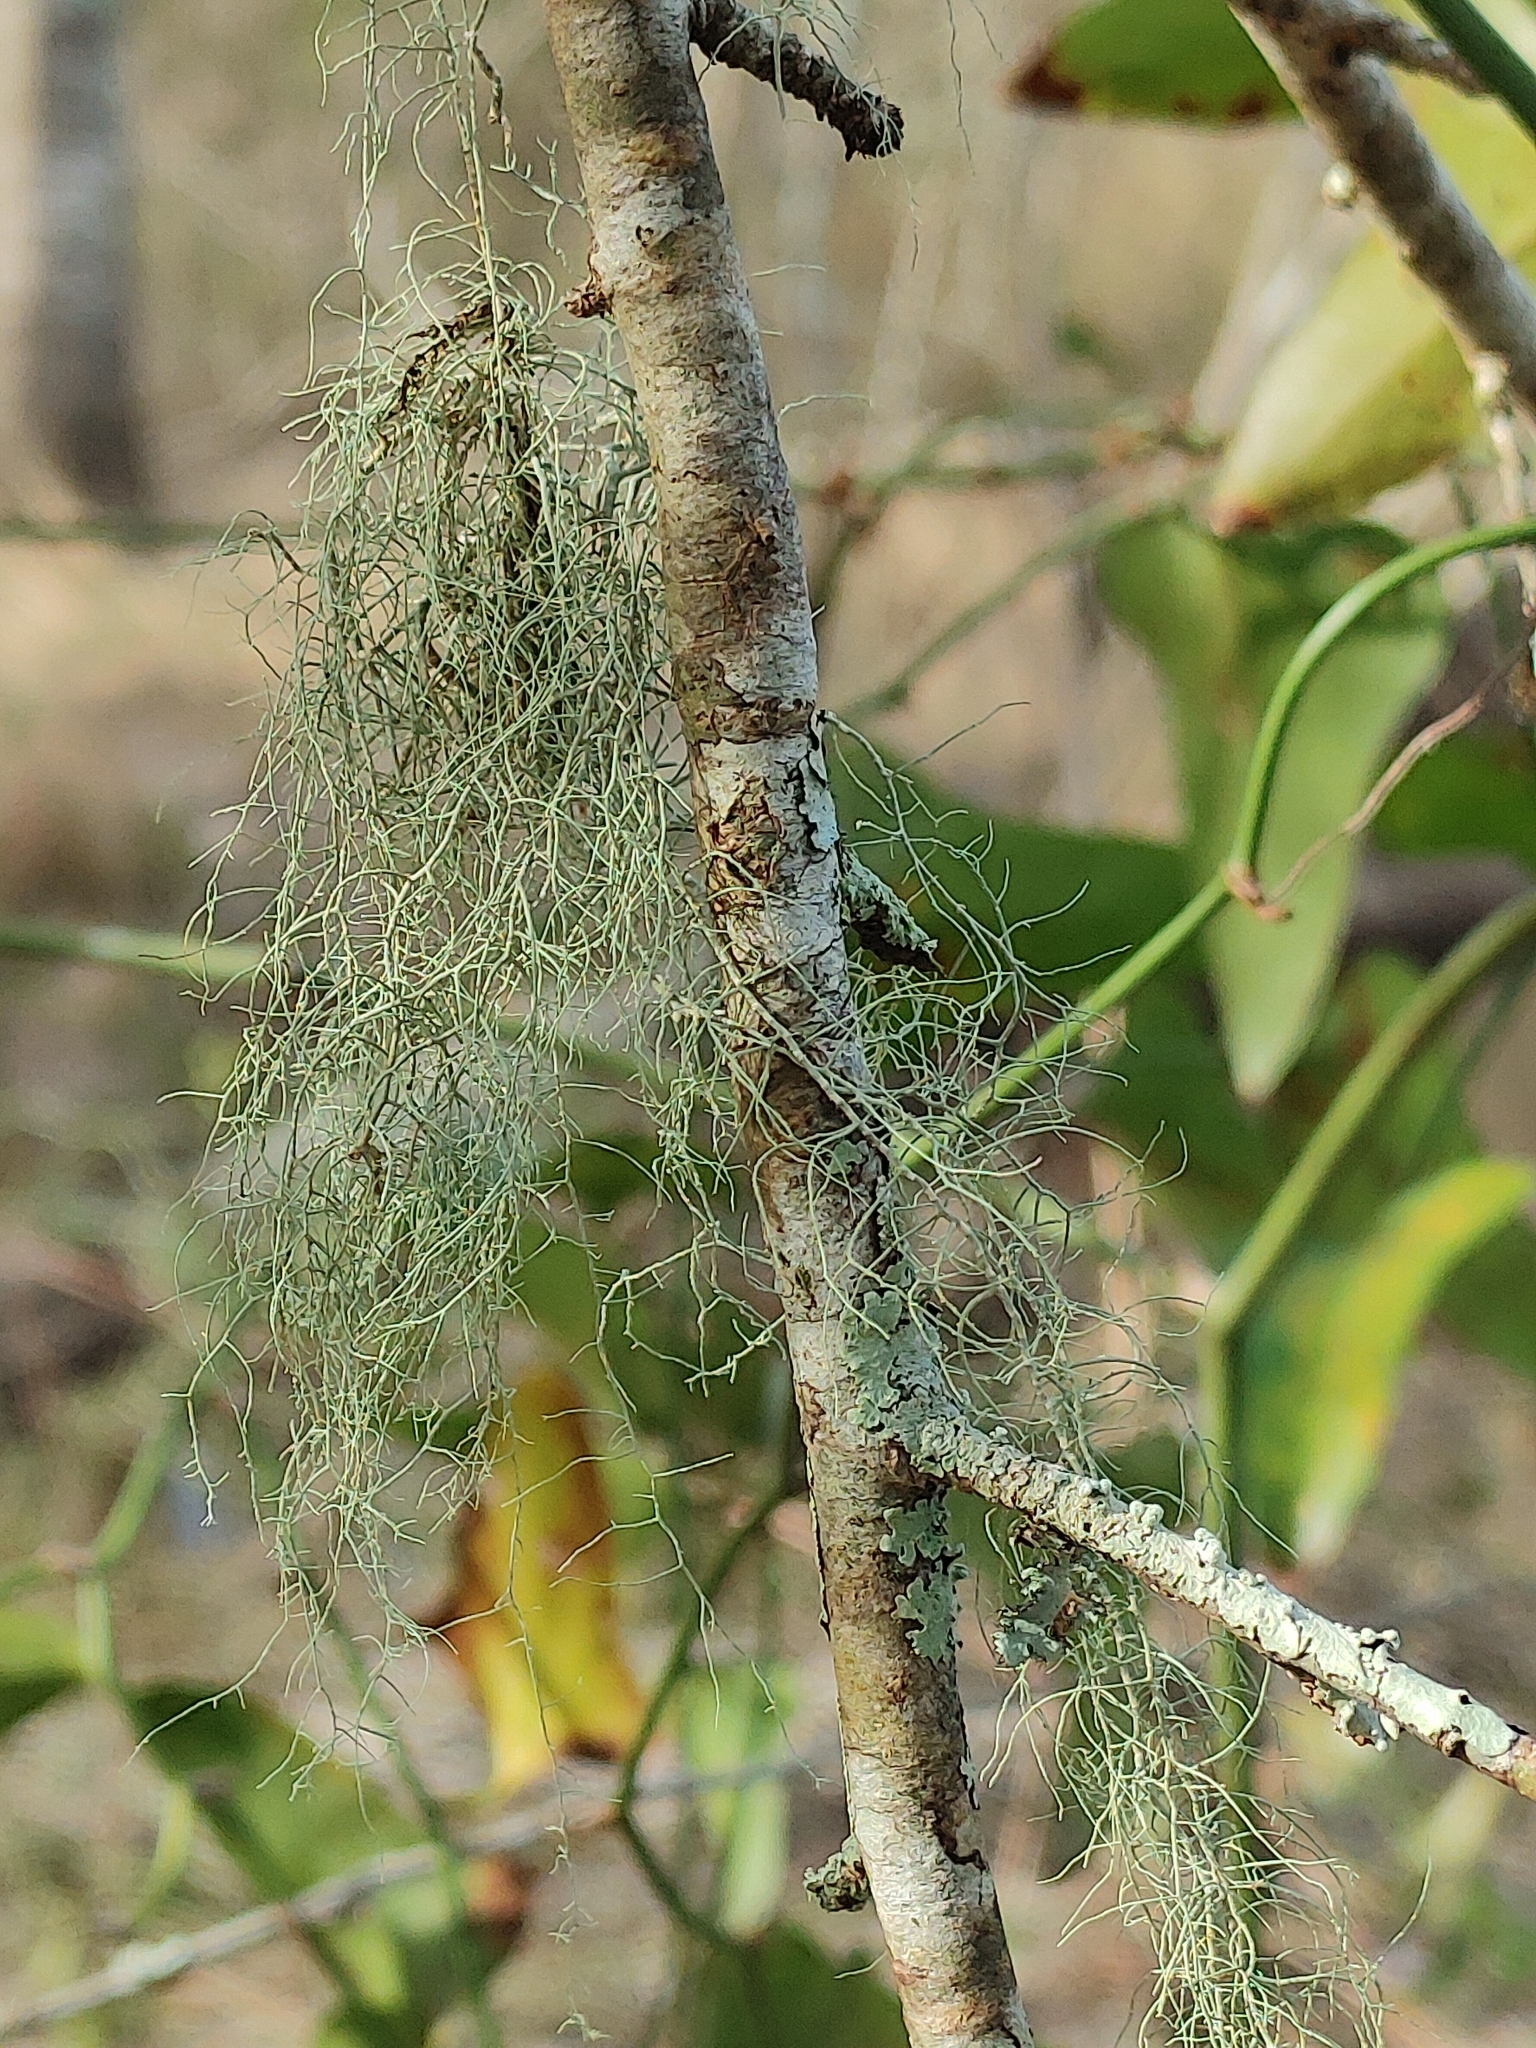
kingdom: Fungi
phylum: Ascomycota
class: Lecanoromycetes
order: Lecanorales
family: Parmeliaceae
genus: Usnea
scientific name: Usnea rubicunda
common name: Red beard lichen
